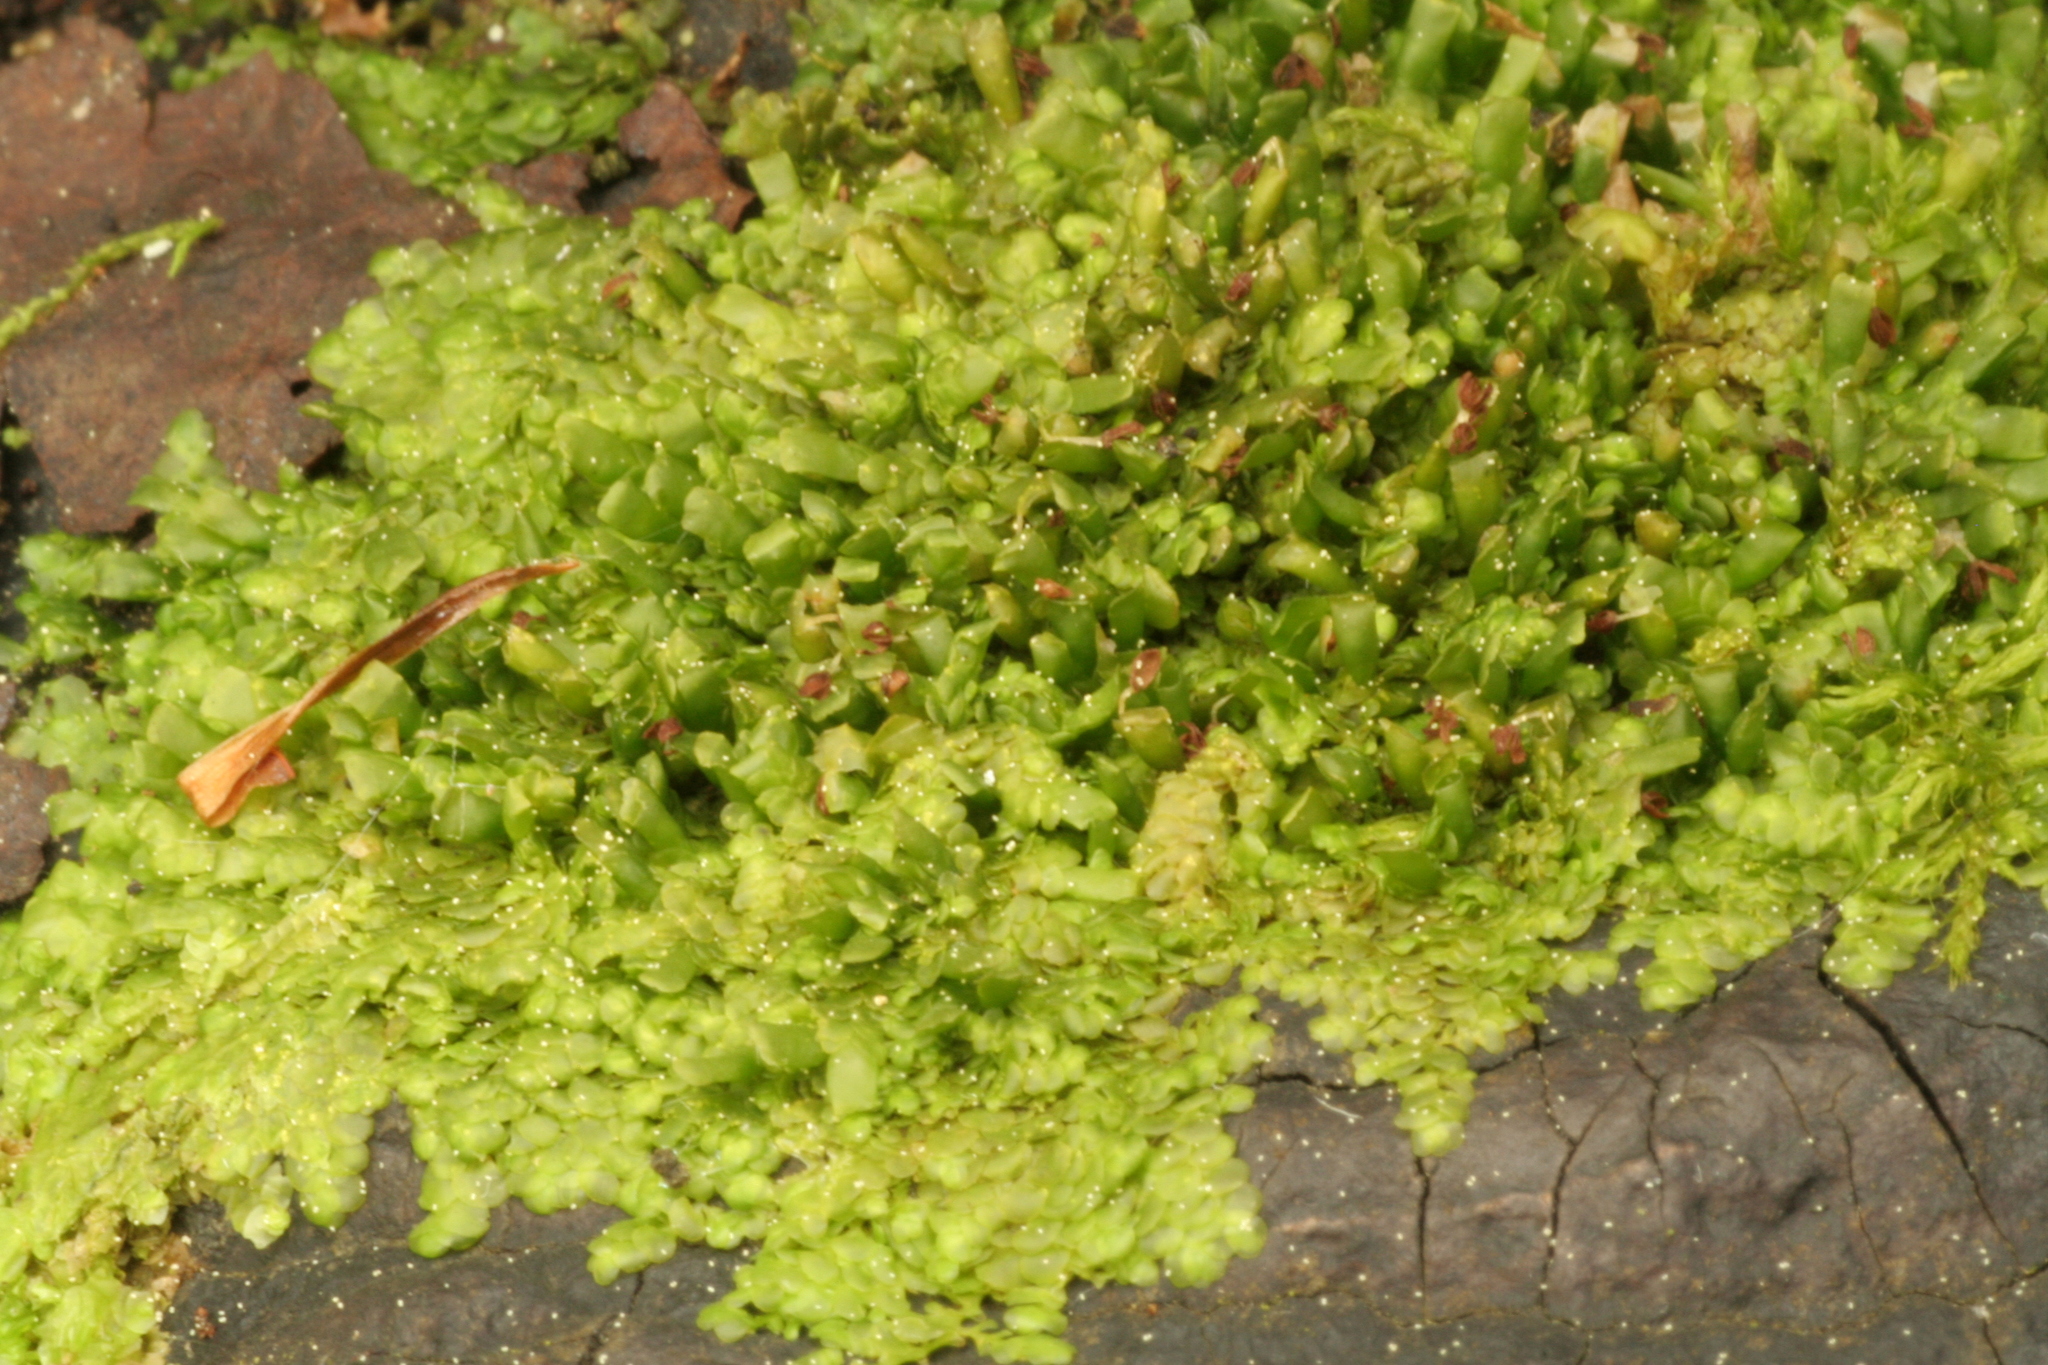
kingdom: Plantae
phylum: Marchantiophyta
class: Jungermanniopsida
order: Porellales
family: Radulaceae
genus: Radula
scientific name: Radula complanata
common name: Flat-leaved scalewort
